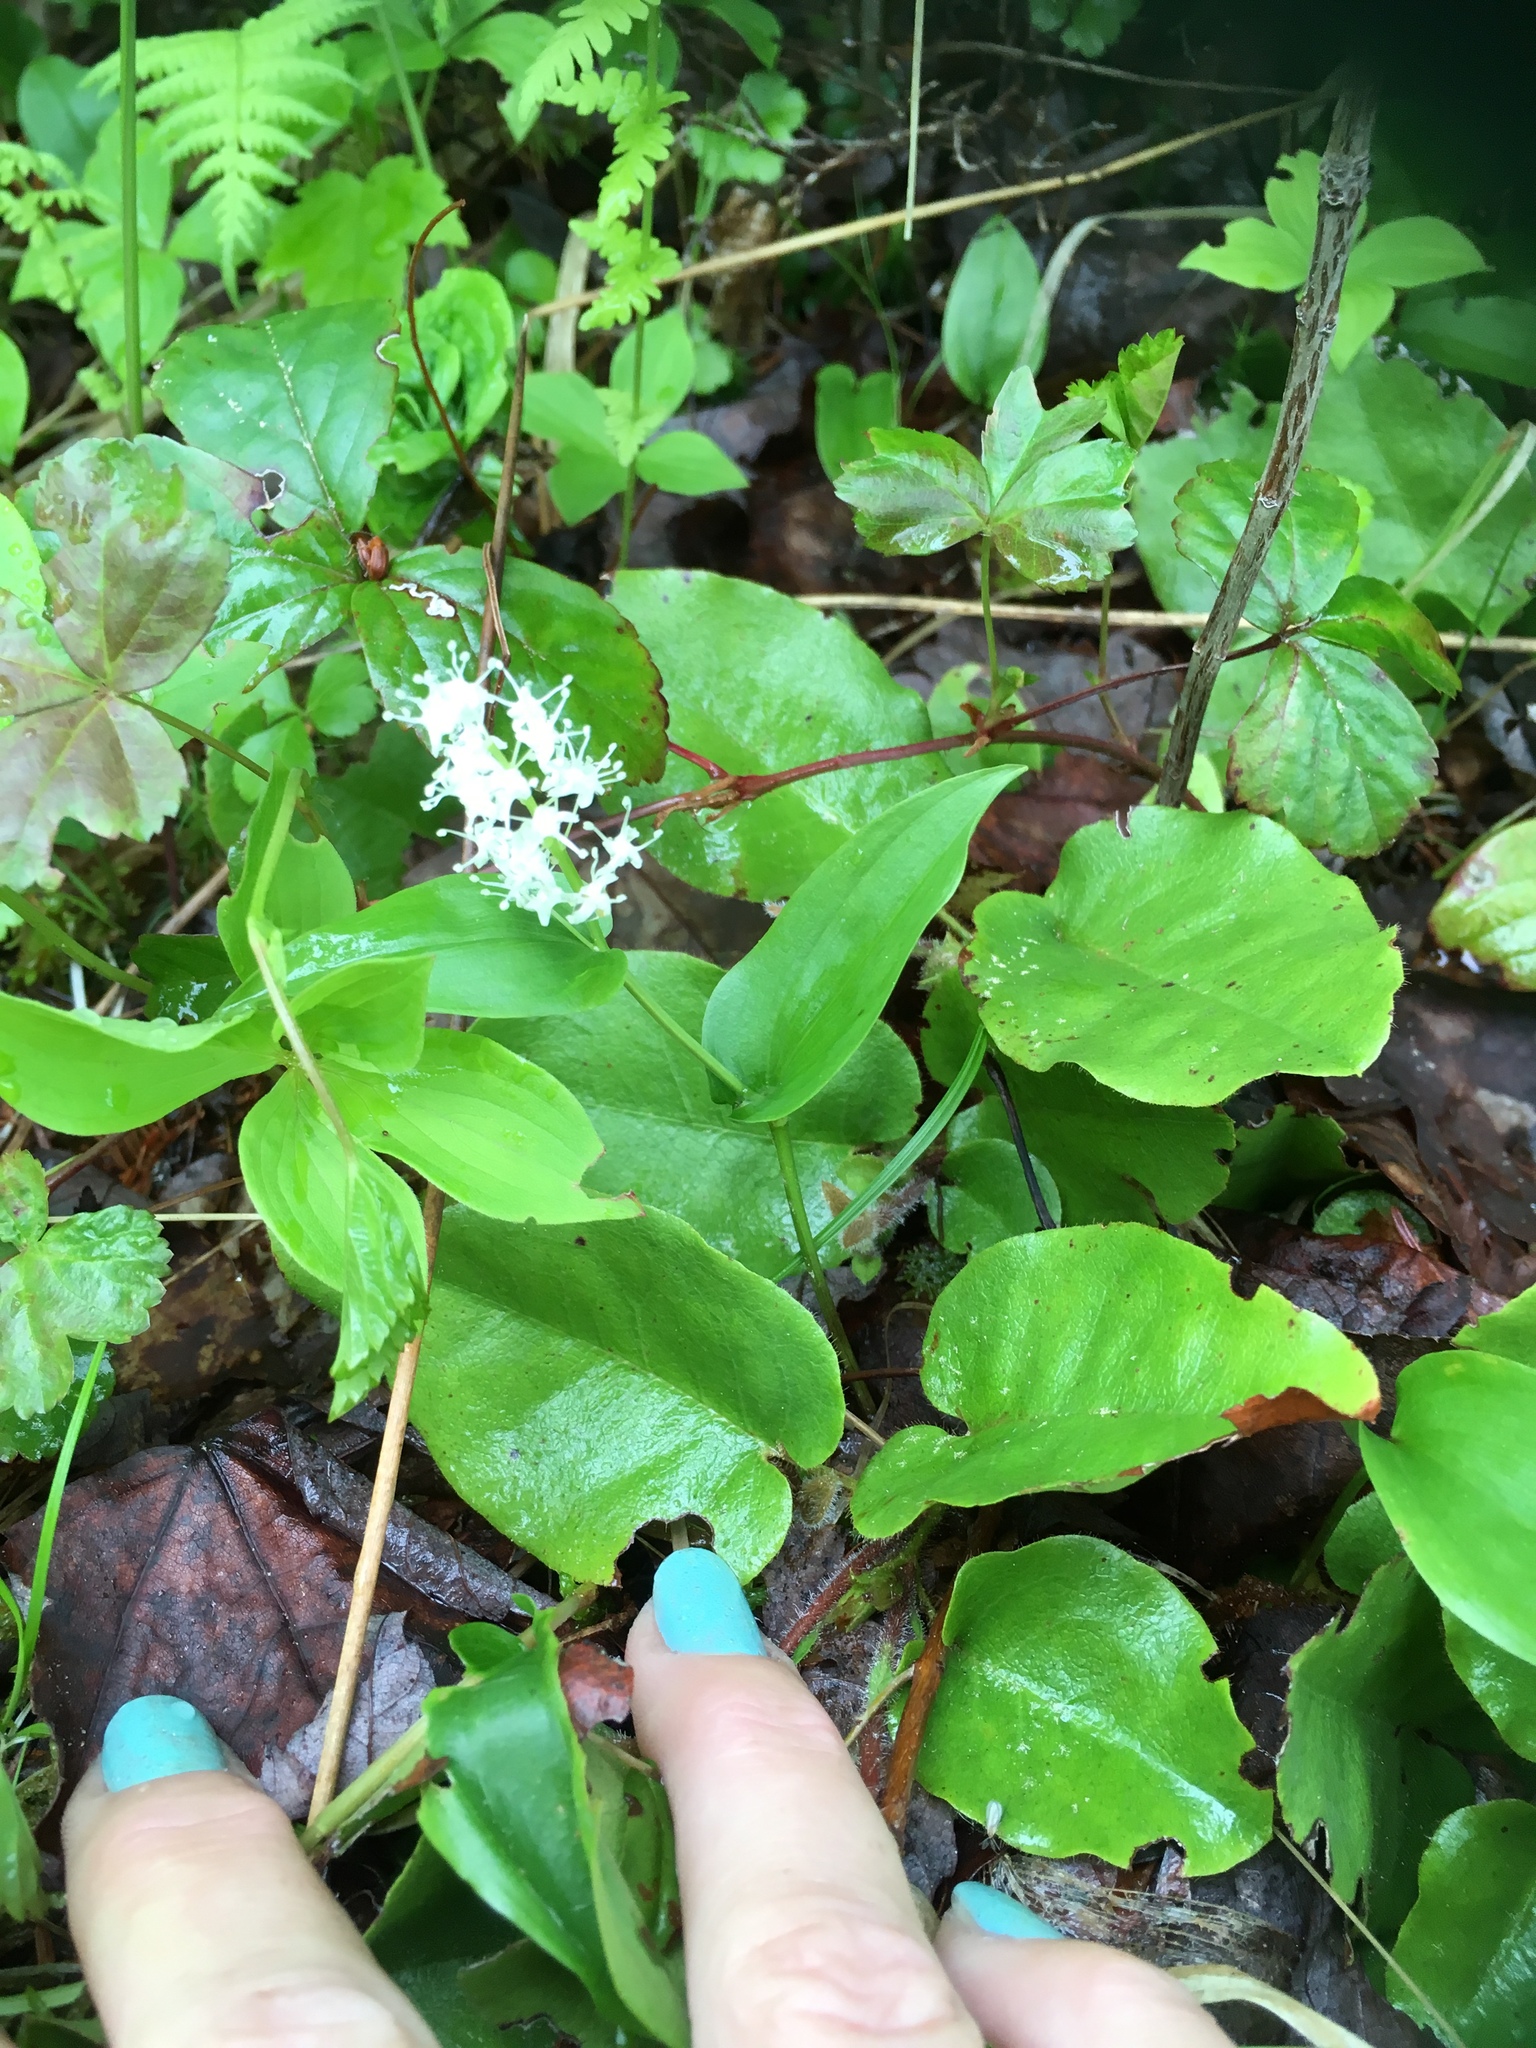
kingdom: Plantae
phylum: Tracheophyta
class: Liliopsida
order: Asparagales
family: Asparagaceae
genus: Maianthemum
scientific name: Maianthemum canadense
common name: False lily-of-the-valley
